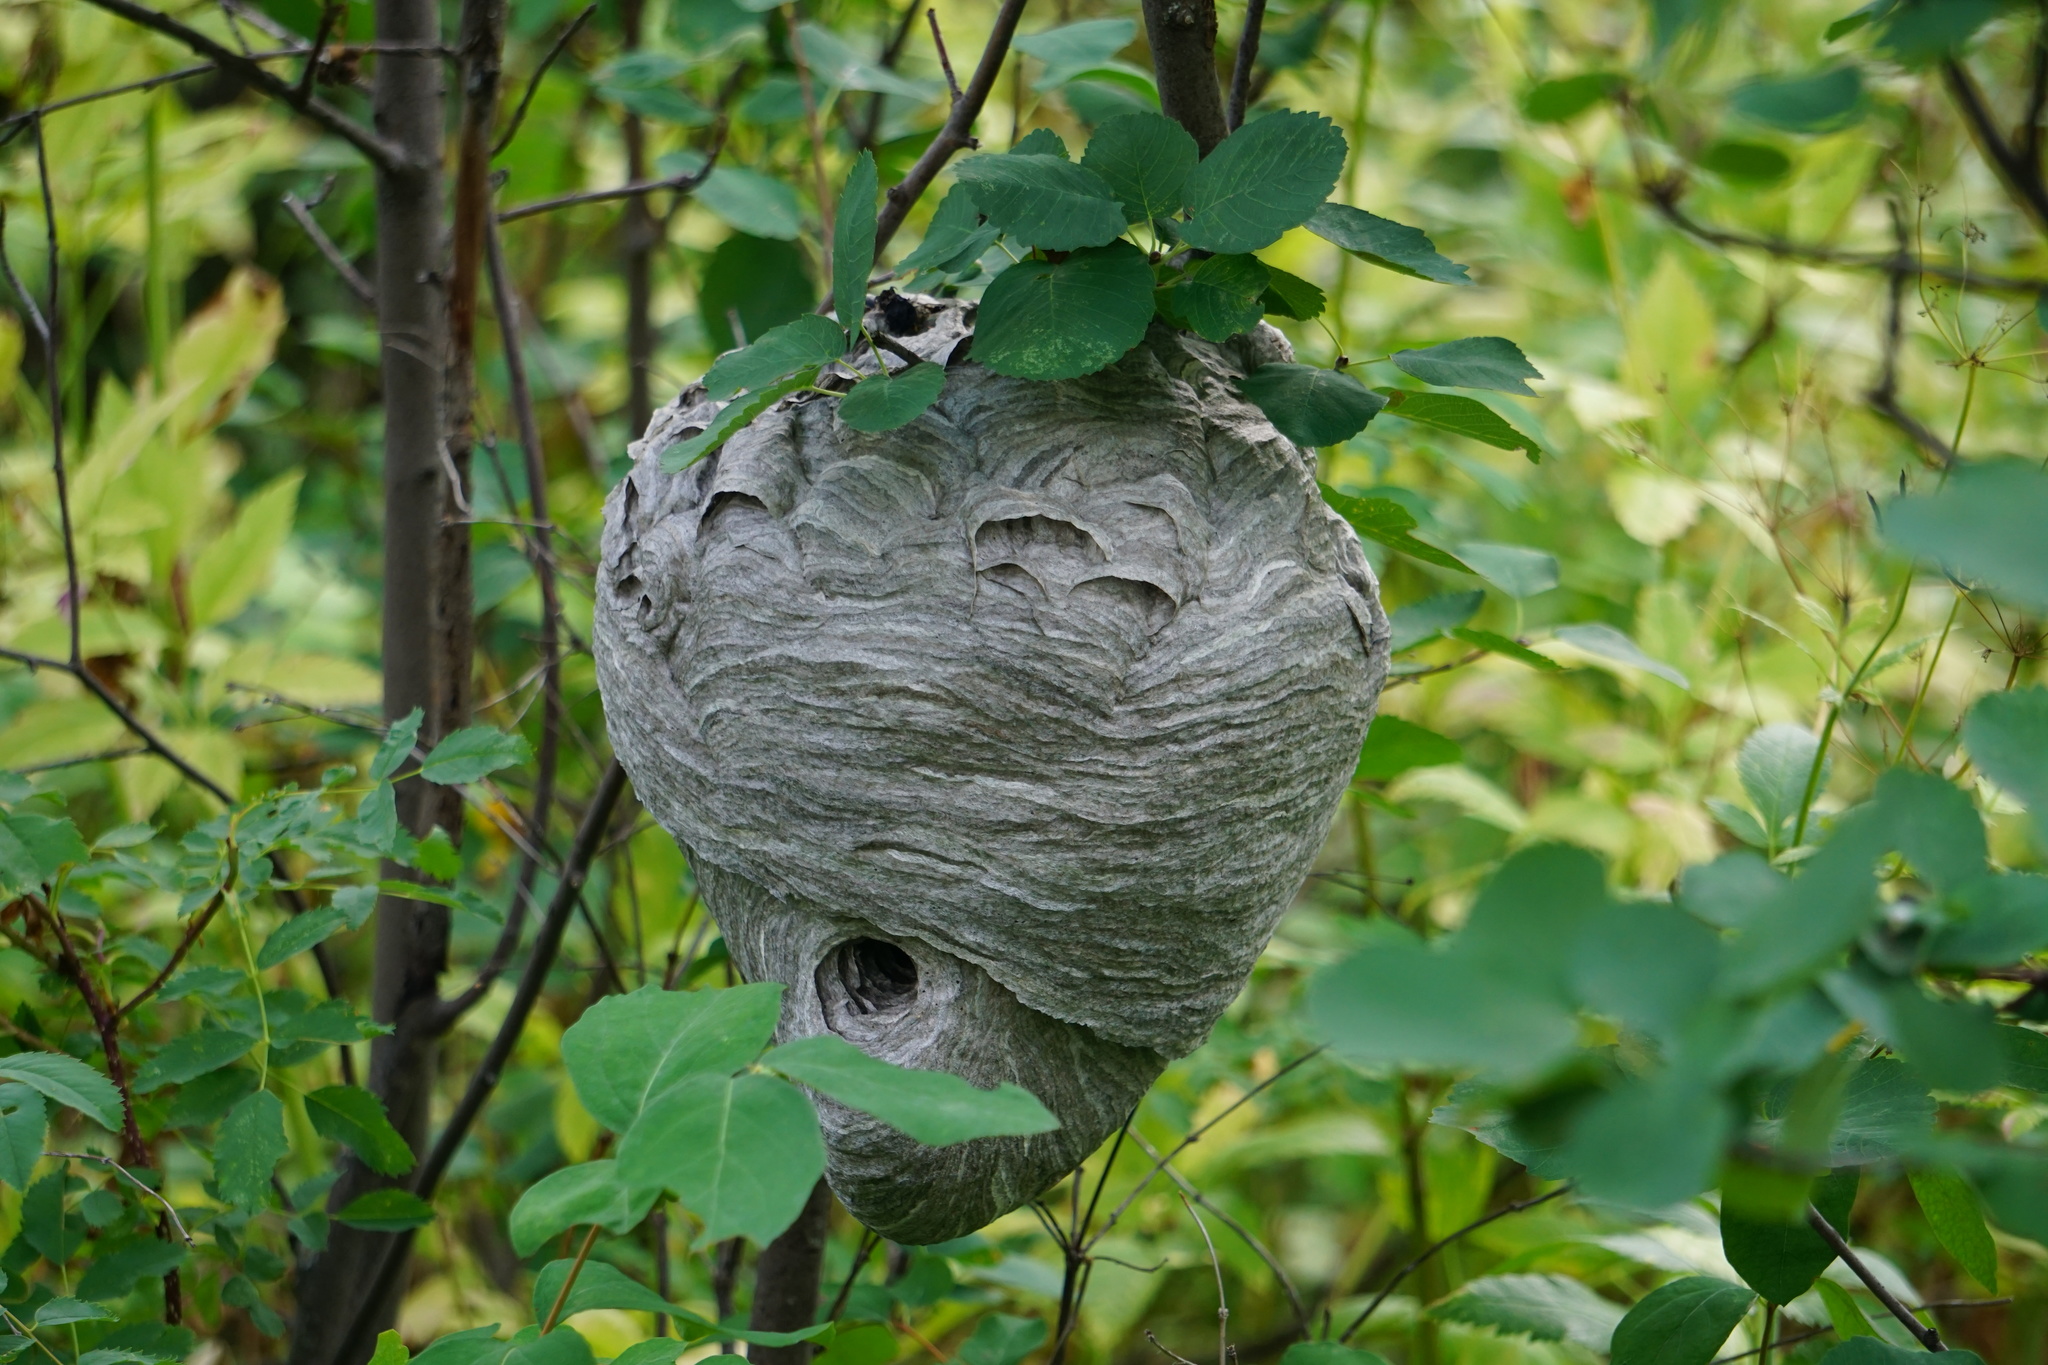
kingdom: Animalia
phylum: Arthropoda
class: Insecta
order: Hymenoptera
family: Vespidae
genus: Dolichovespula
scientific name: Dolichovespula
